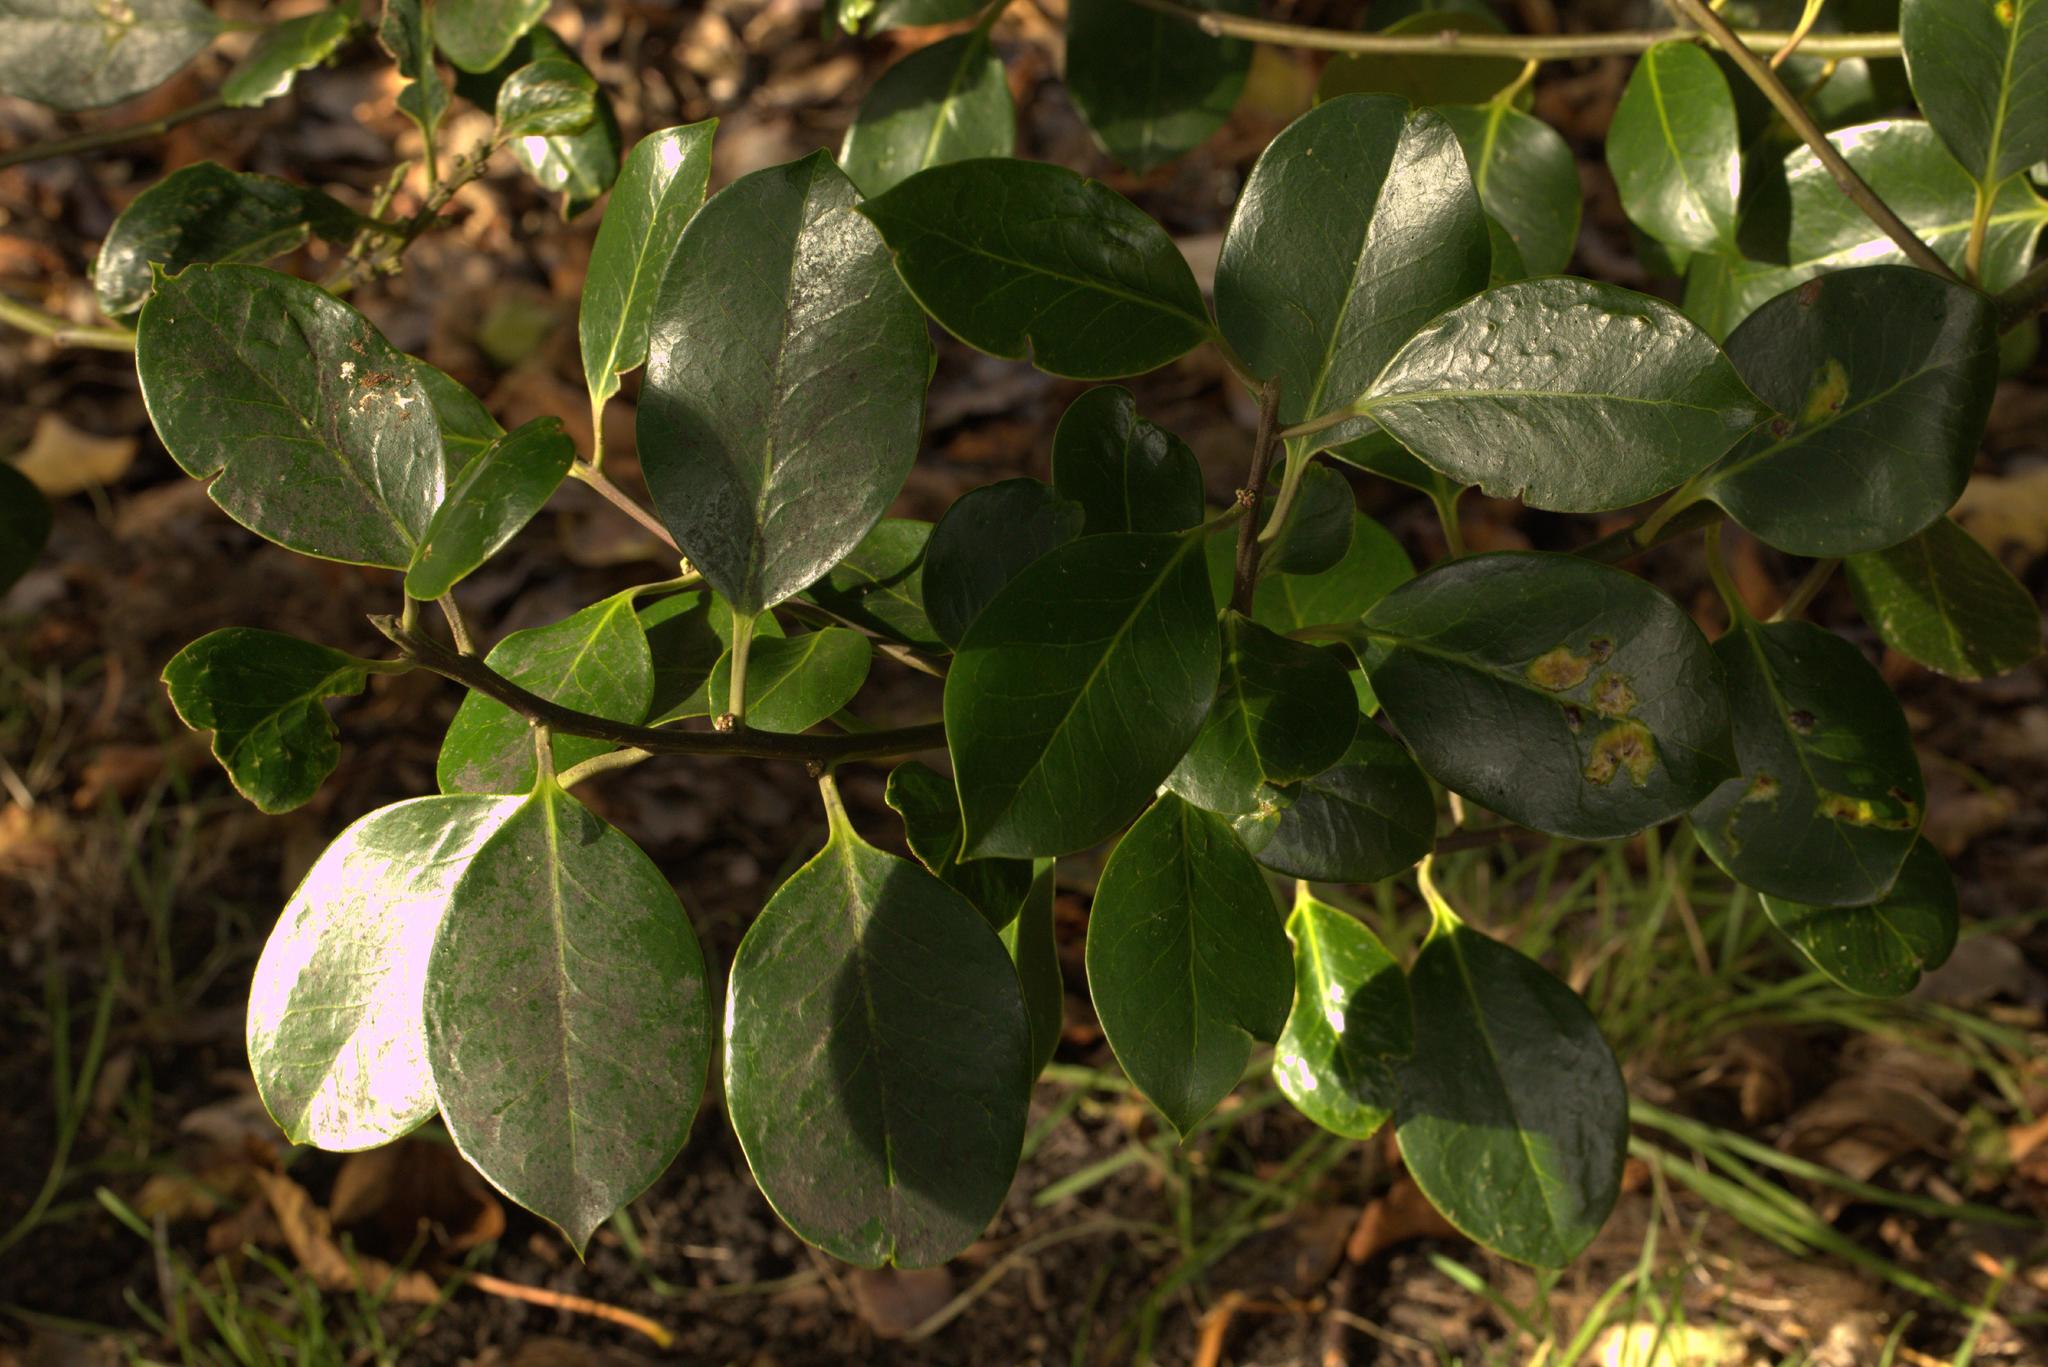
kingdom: Plantae
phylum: Tracheophyta
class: Magnoliopsida
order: Aquifoliales
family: Aquifoliaceae
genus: Ilex
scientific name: Ilex aquifolium
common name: English holly
